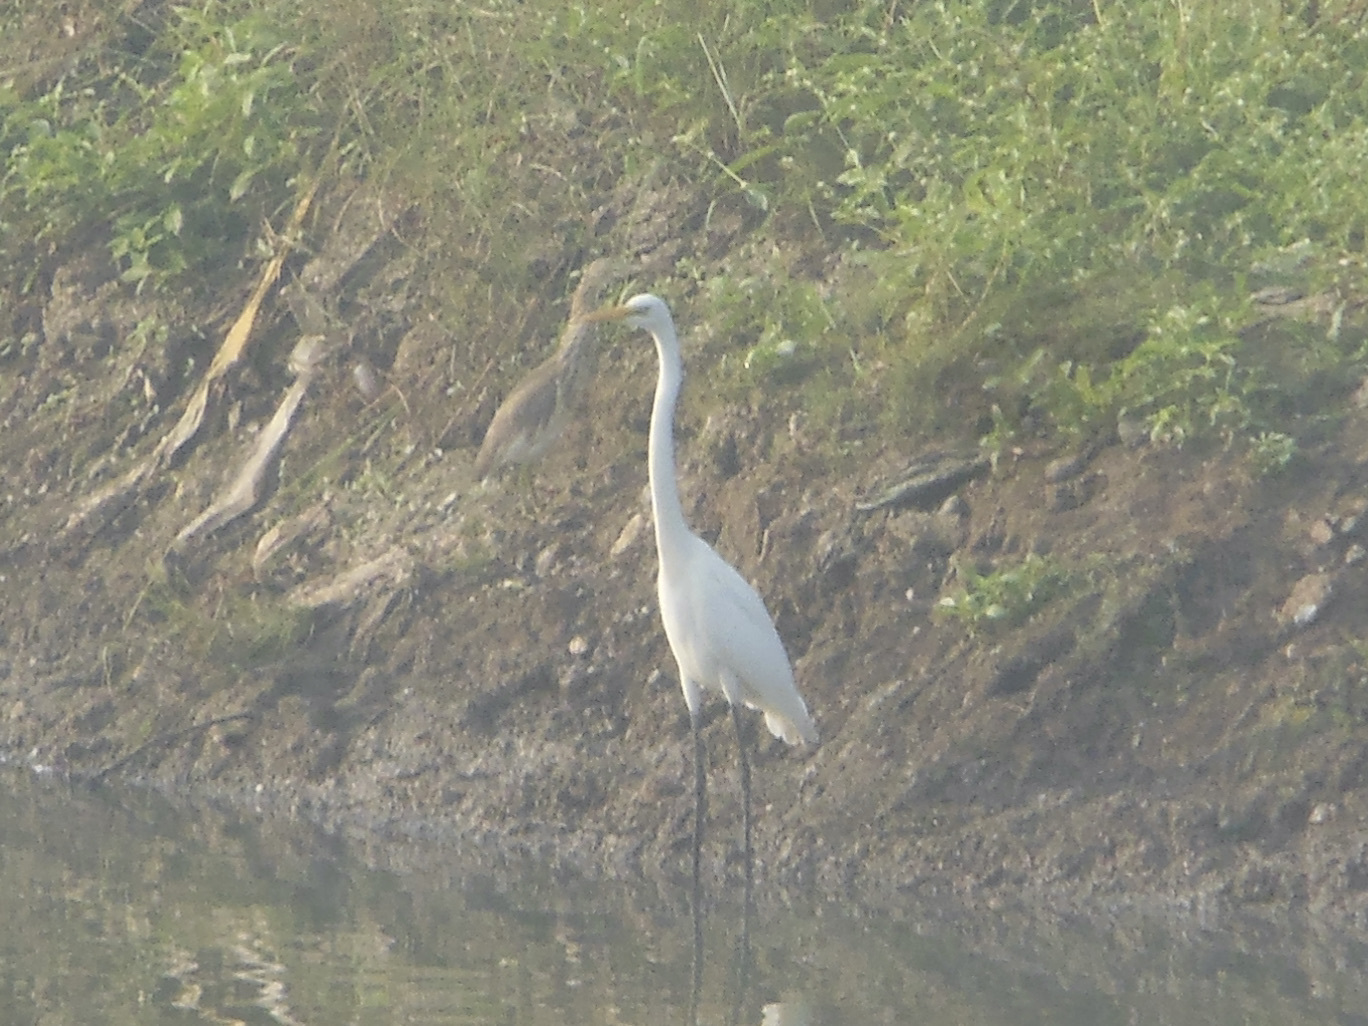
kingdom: Animalia
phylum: Chordata
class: Aves
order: Pelecaniformes
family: Ardeidae
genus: Ardea
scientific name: Ardea alba
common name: Great egret
